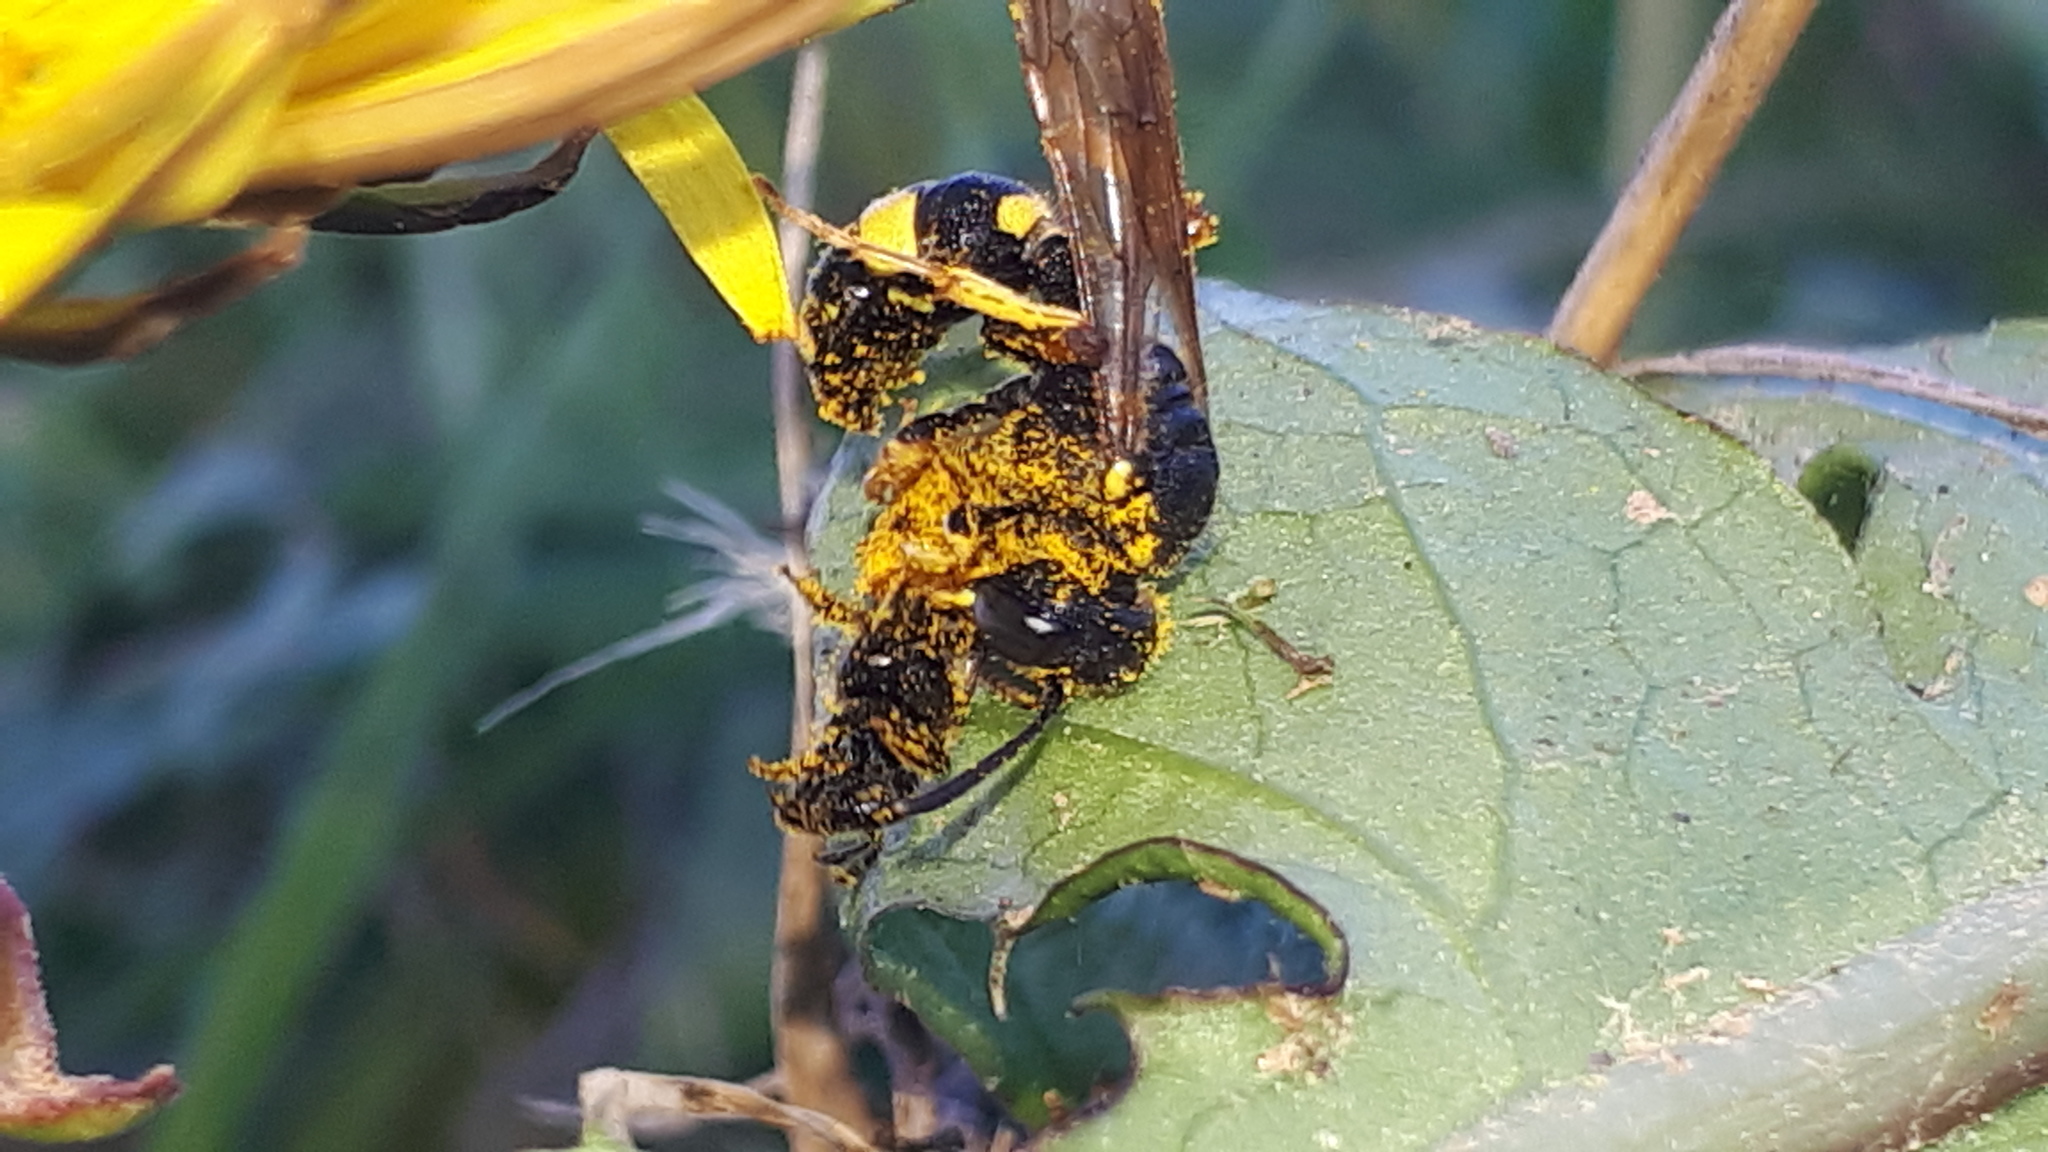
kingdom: Animalia
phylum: Arthropoda
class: Insecta
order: Hymenoptera
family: Crabronidae
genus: Cerceris
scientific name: Cerceris rybyensis
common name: Ornate tailed digger wasp
